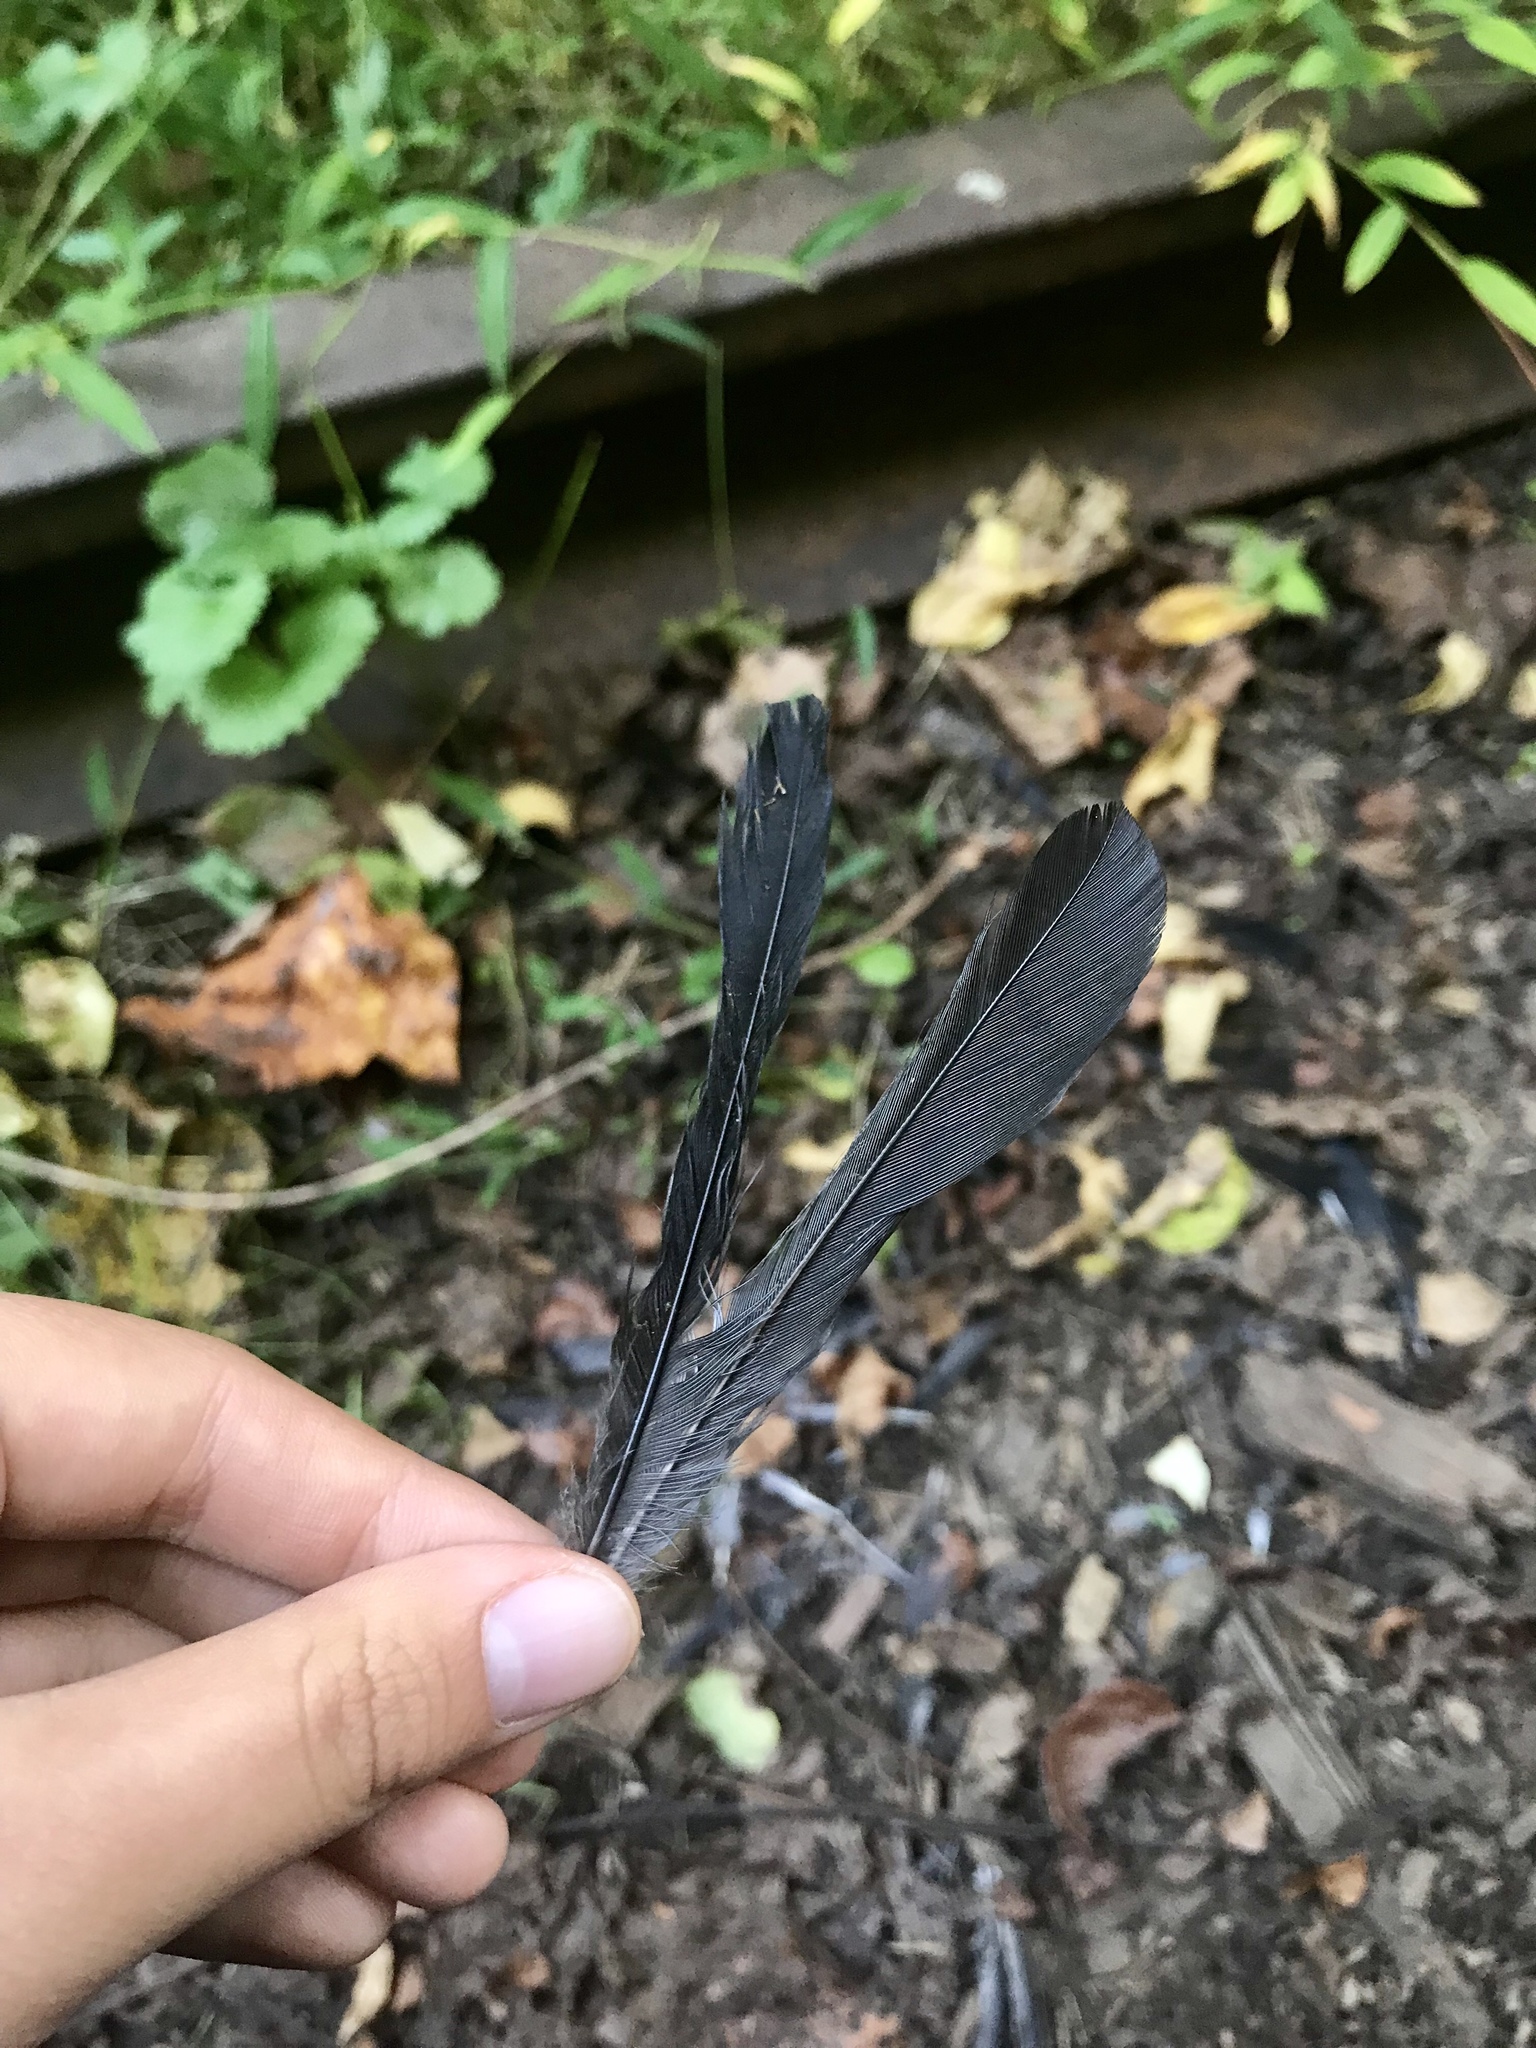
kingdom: Animalia
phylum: Chordata
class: Aves
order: Passeriformes
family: Mimidae
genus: Dumetella
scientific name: Dumetella carolinensis
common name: Gray catbird
